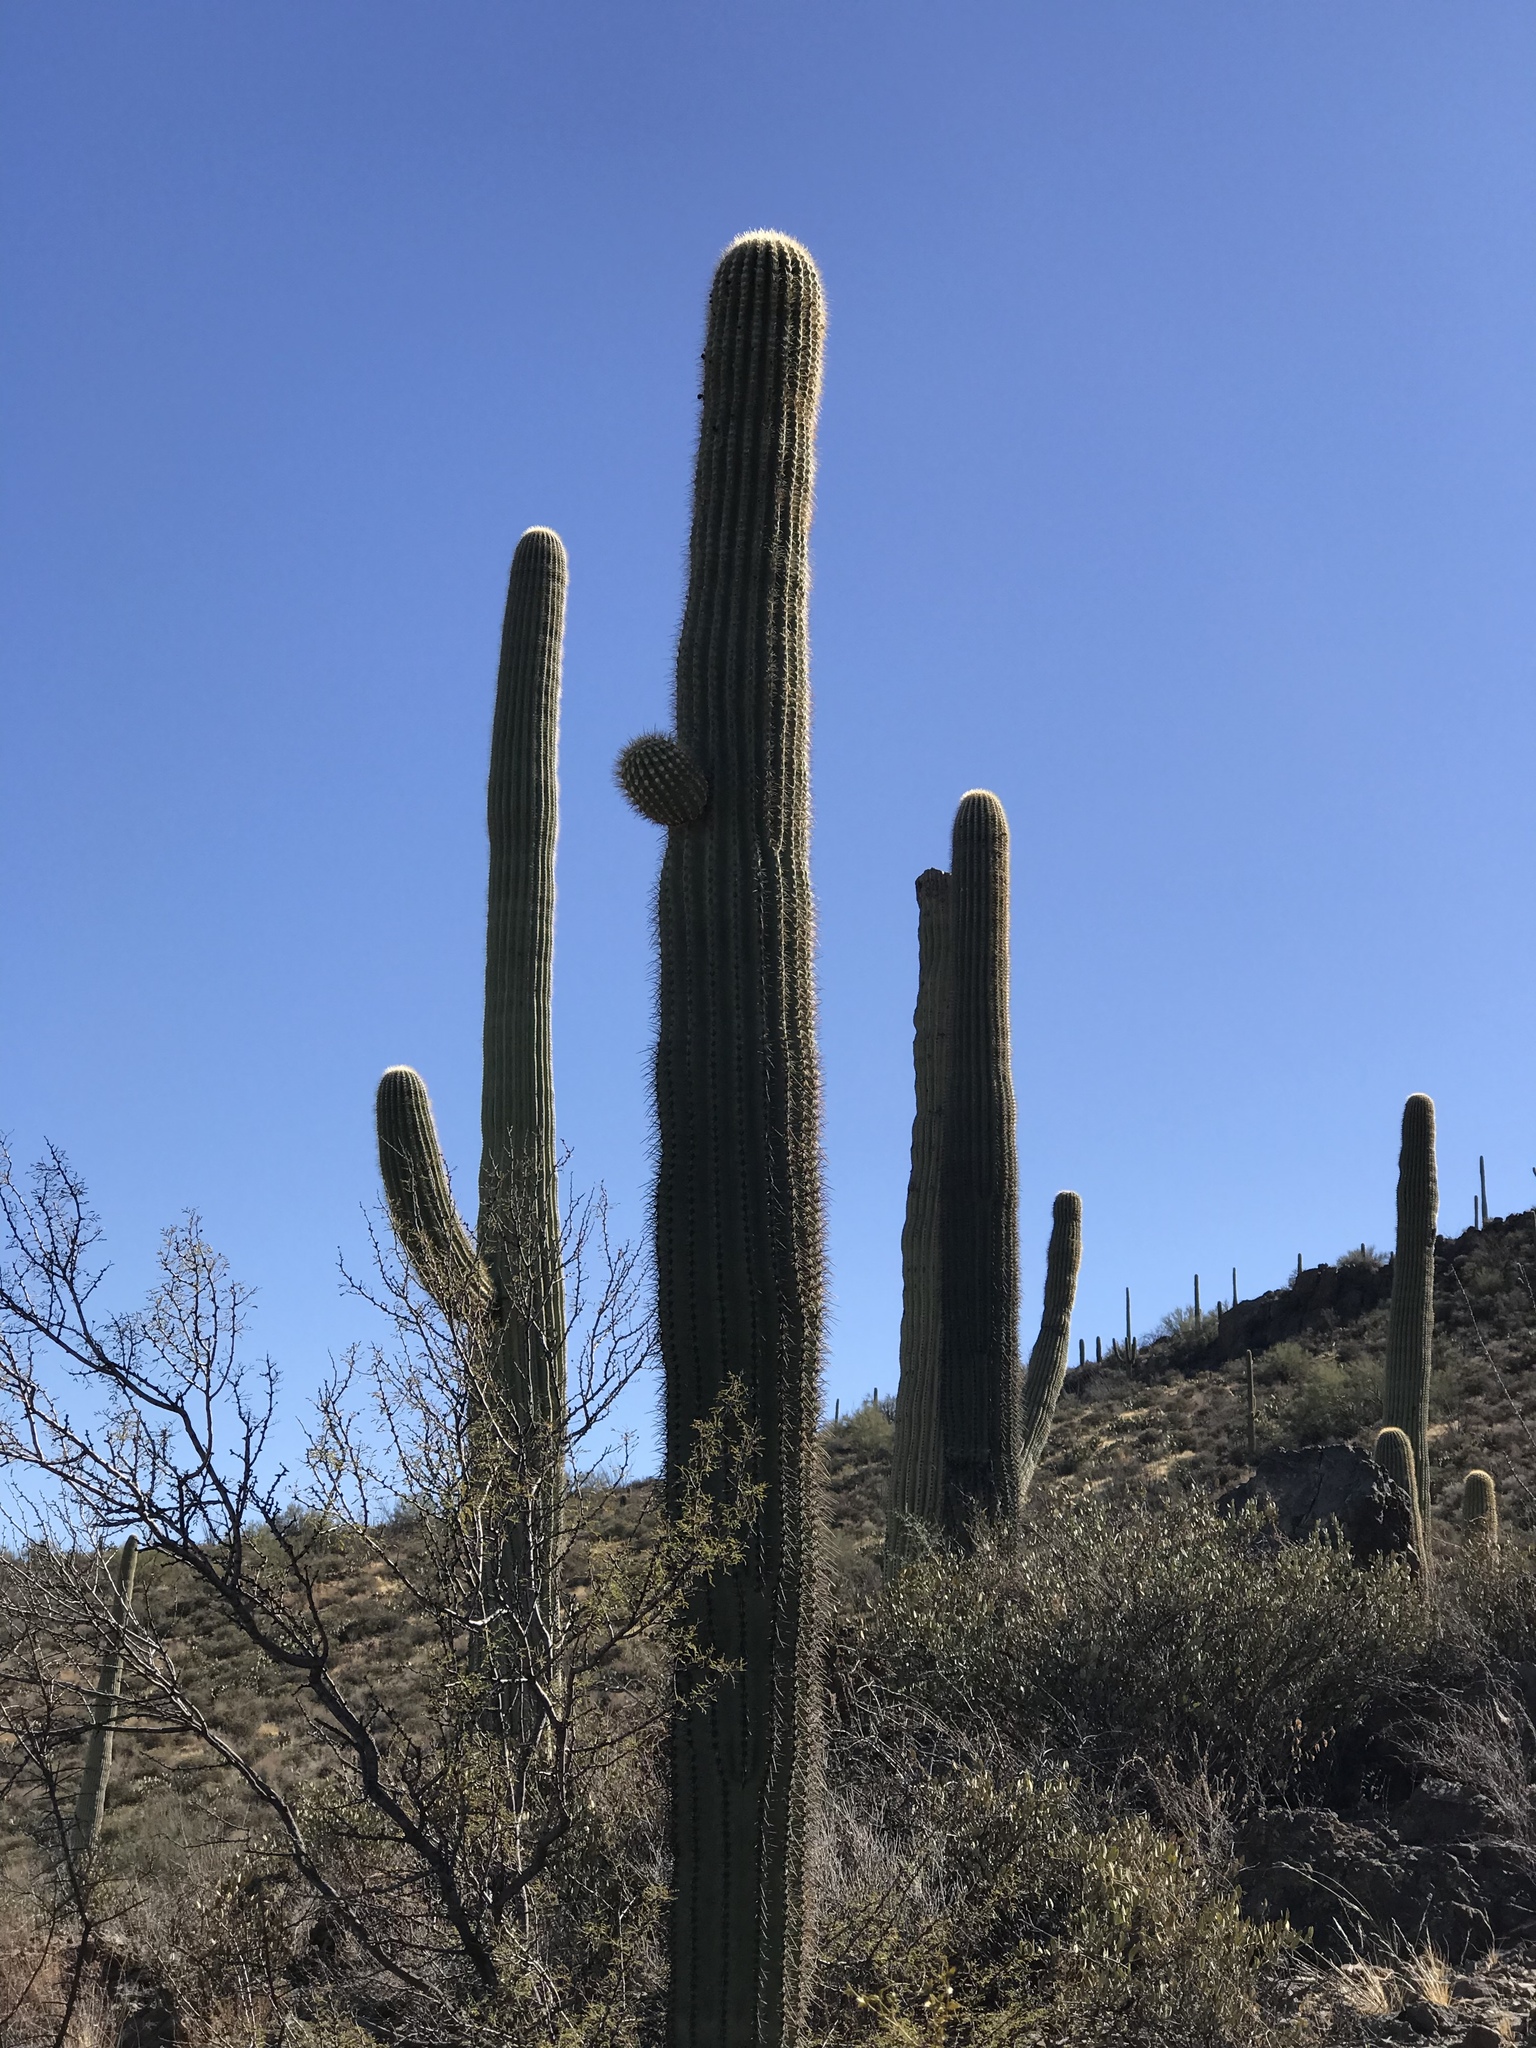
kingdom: Plantae
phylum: Tracheophyta
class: Magnoliopsida
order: Caryophyllales
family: Cactaceae
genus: Carnegiea
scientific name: Carnegiea gigantea
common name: Saguaro
